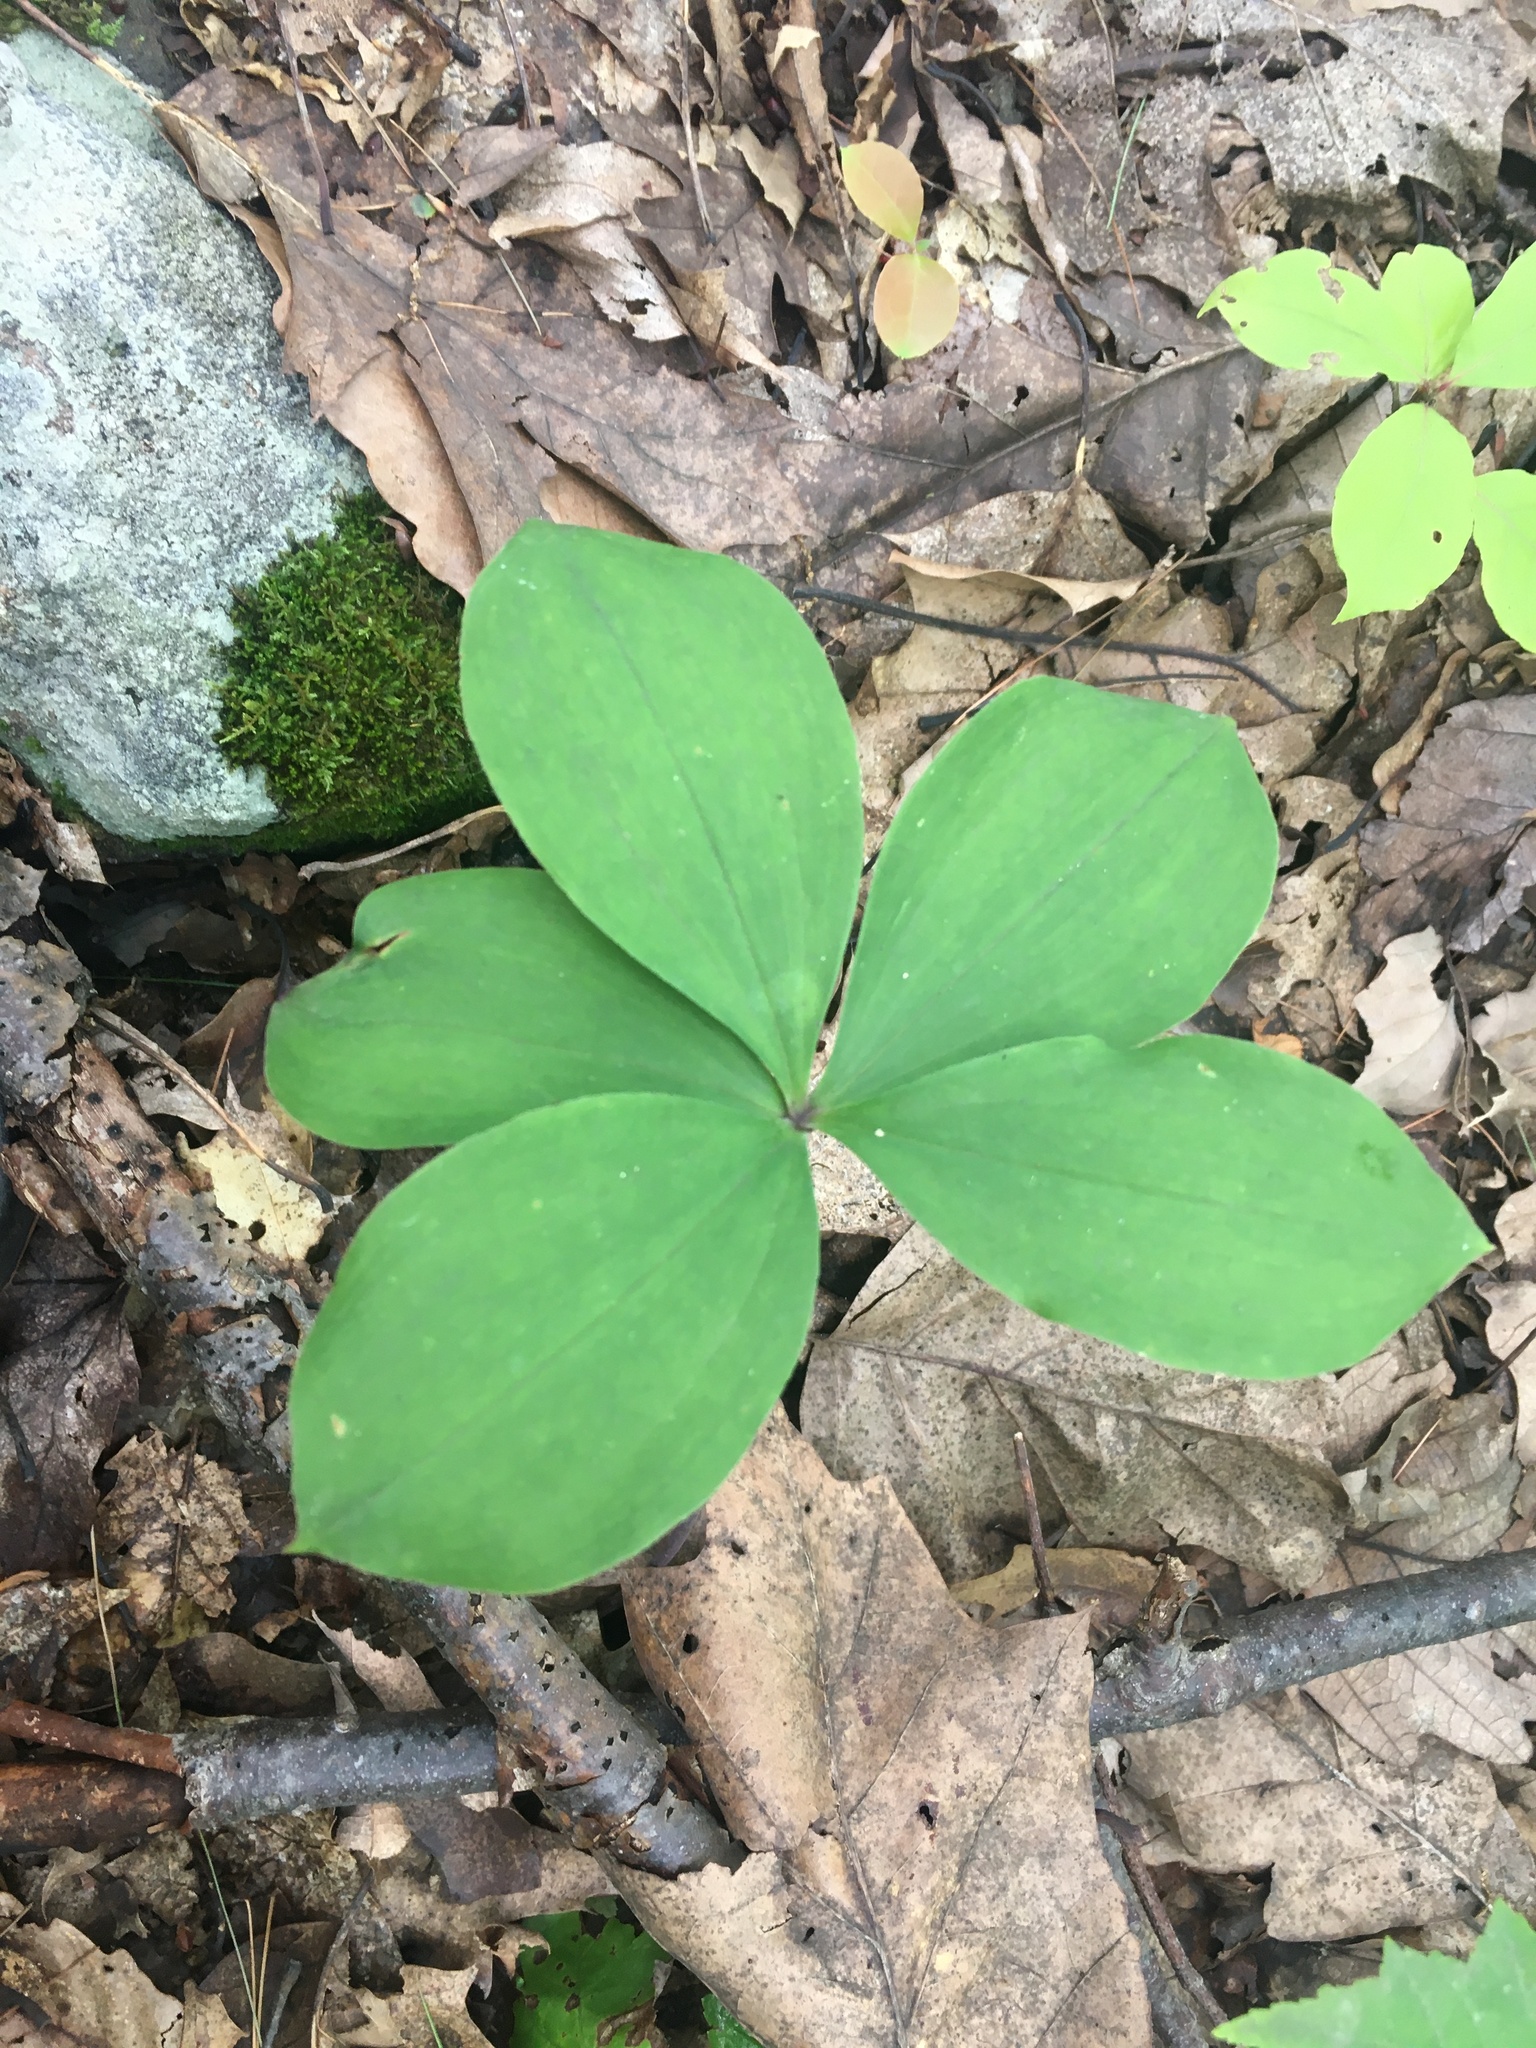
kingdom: Plantae
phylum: Tracheophyta
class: Liliopsida
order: Asparagales
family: Orchidaceae
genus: Isotria
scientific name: Isotria verticillata
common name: Large whorled pogonia
